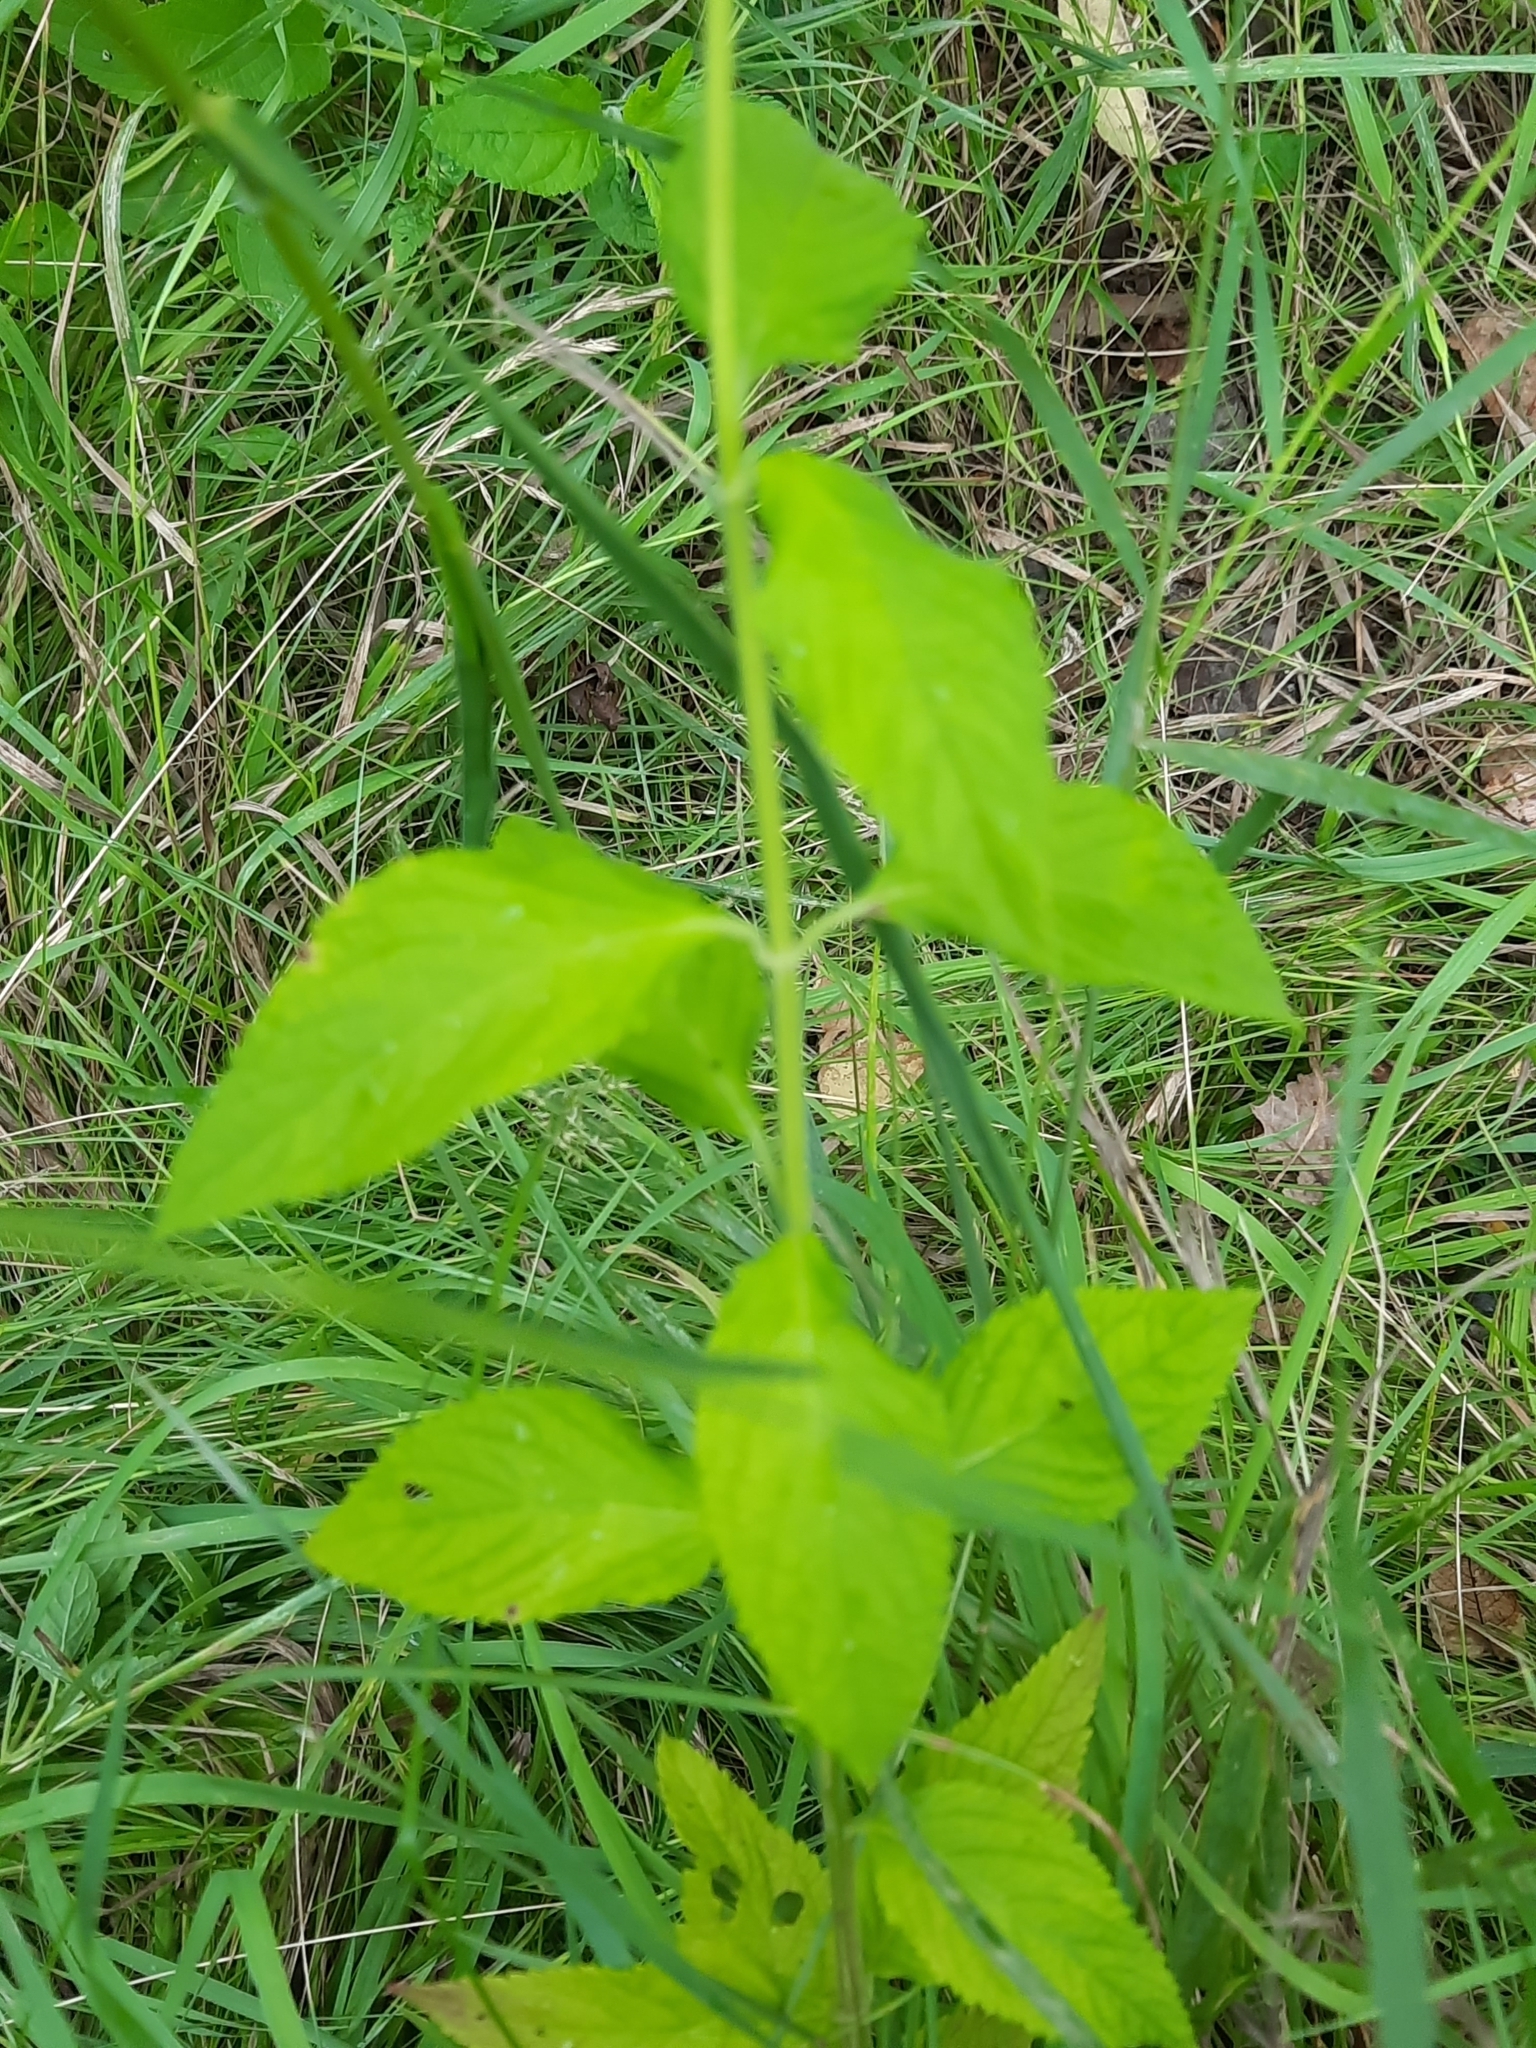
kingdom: Plantae
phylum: Tracheophyta
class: Magnoliopsida
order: Lamiales
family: Lamiaceae
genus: Teucrium
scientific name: Teucrium canadense
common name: American germander
